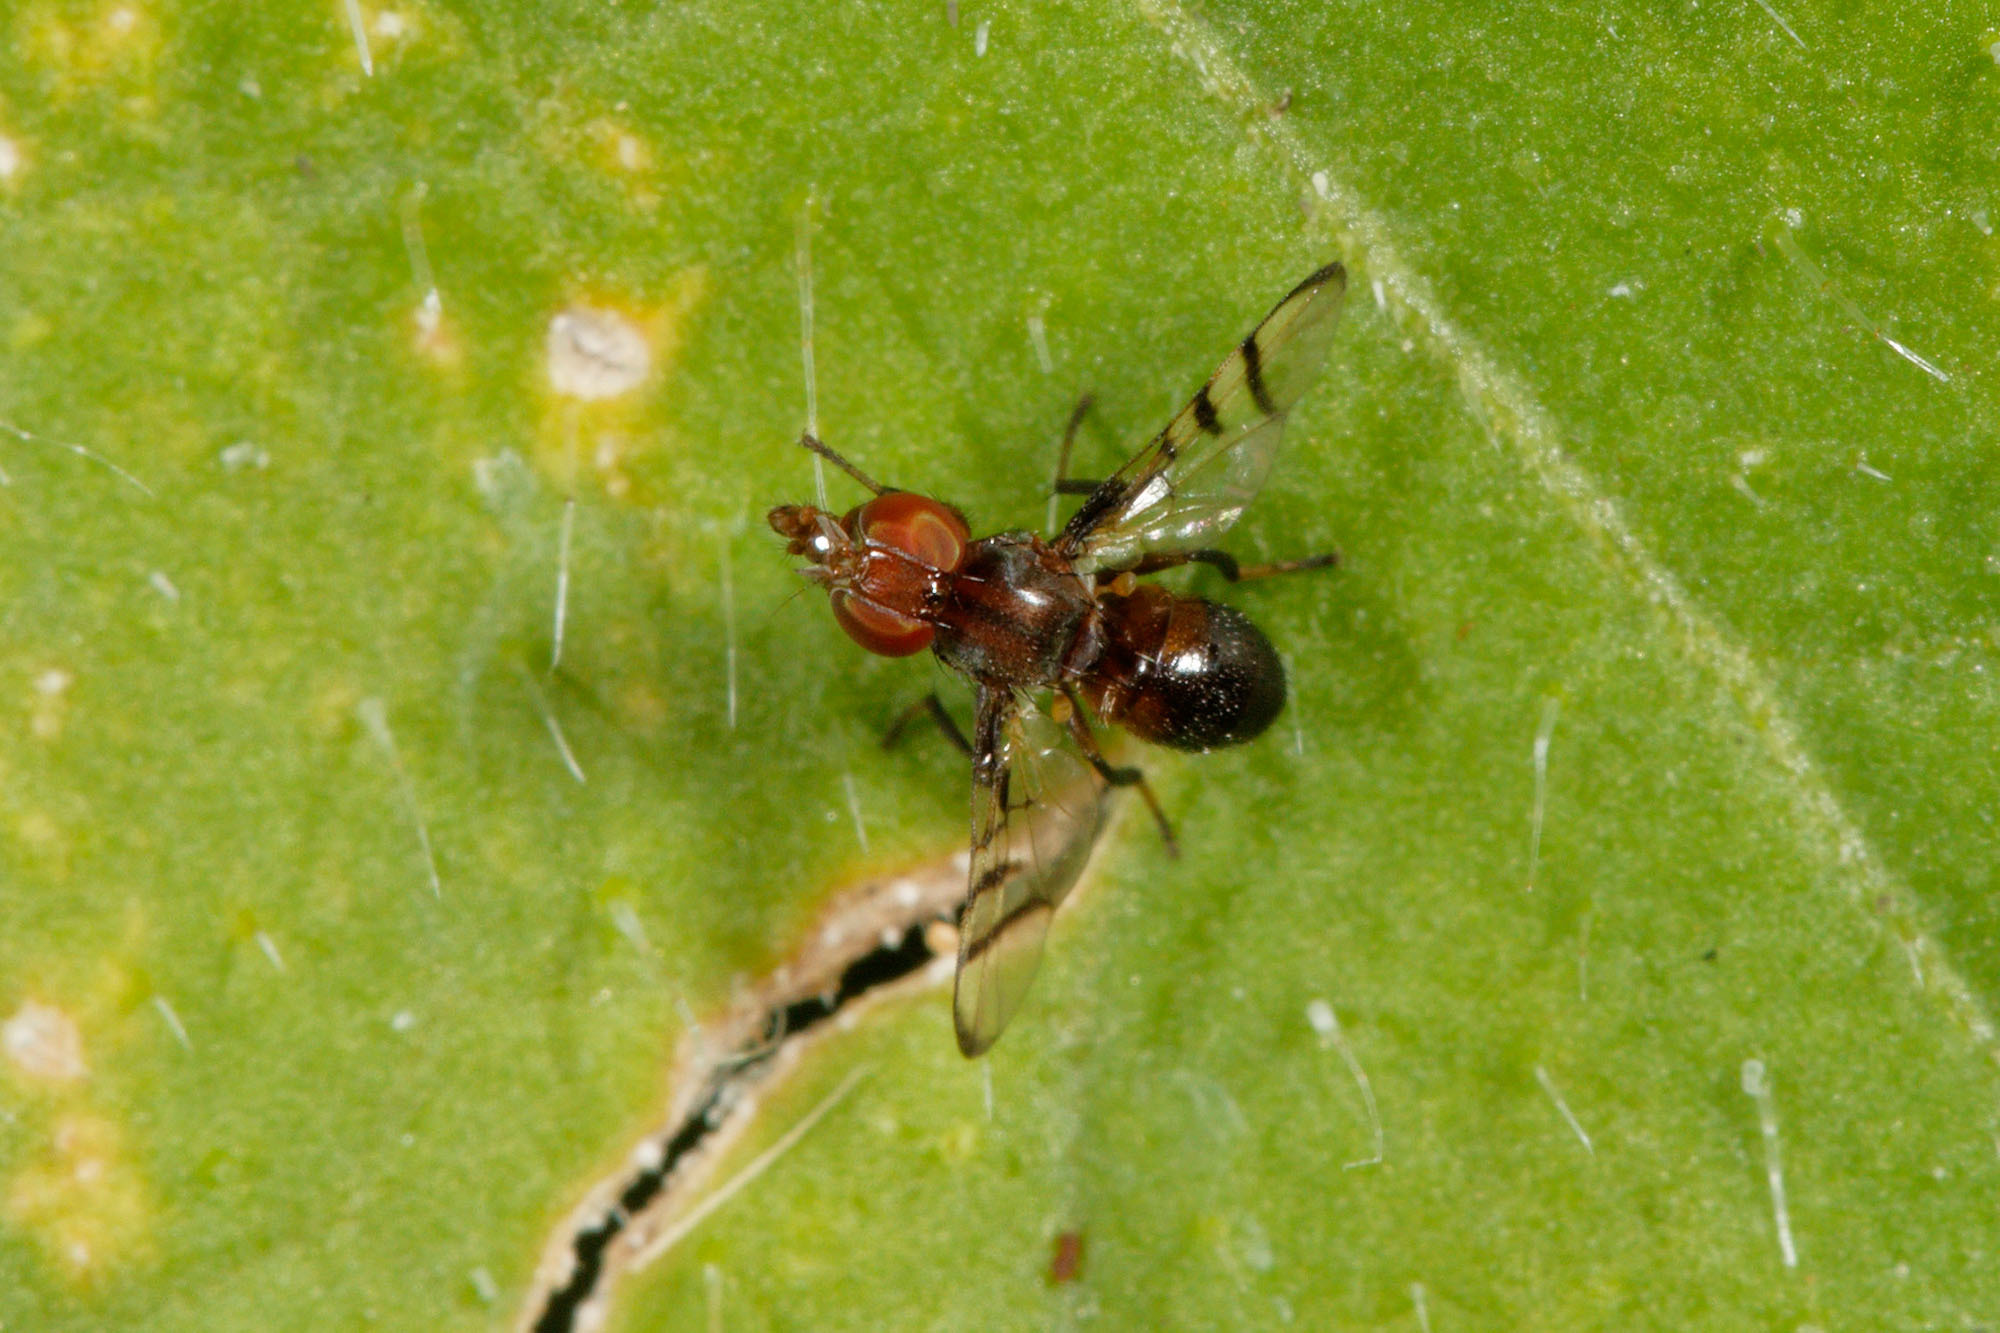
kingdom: Animalia
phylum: Arthropoda
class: Insecta
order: Diptera
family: Platystomatidae
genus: Rivellia
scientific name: Rivellia
